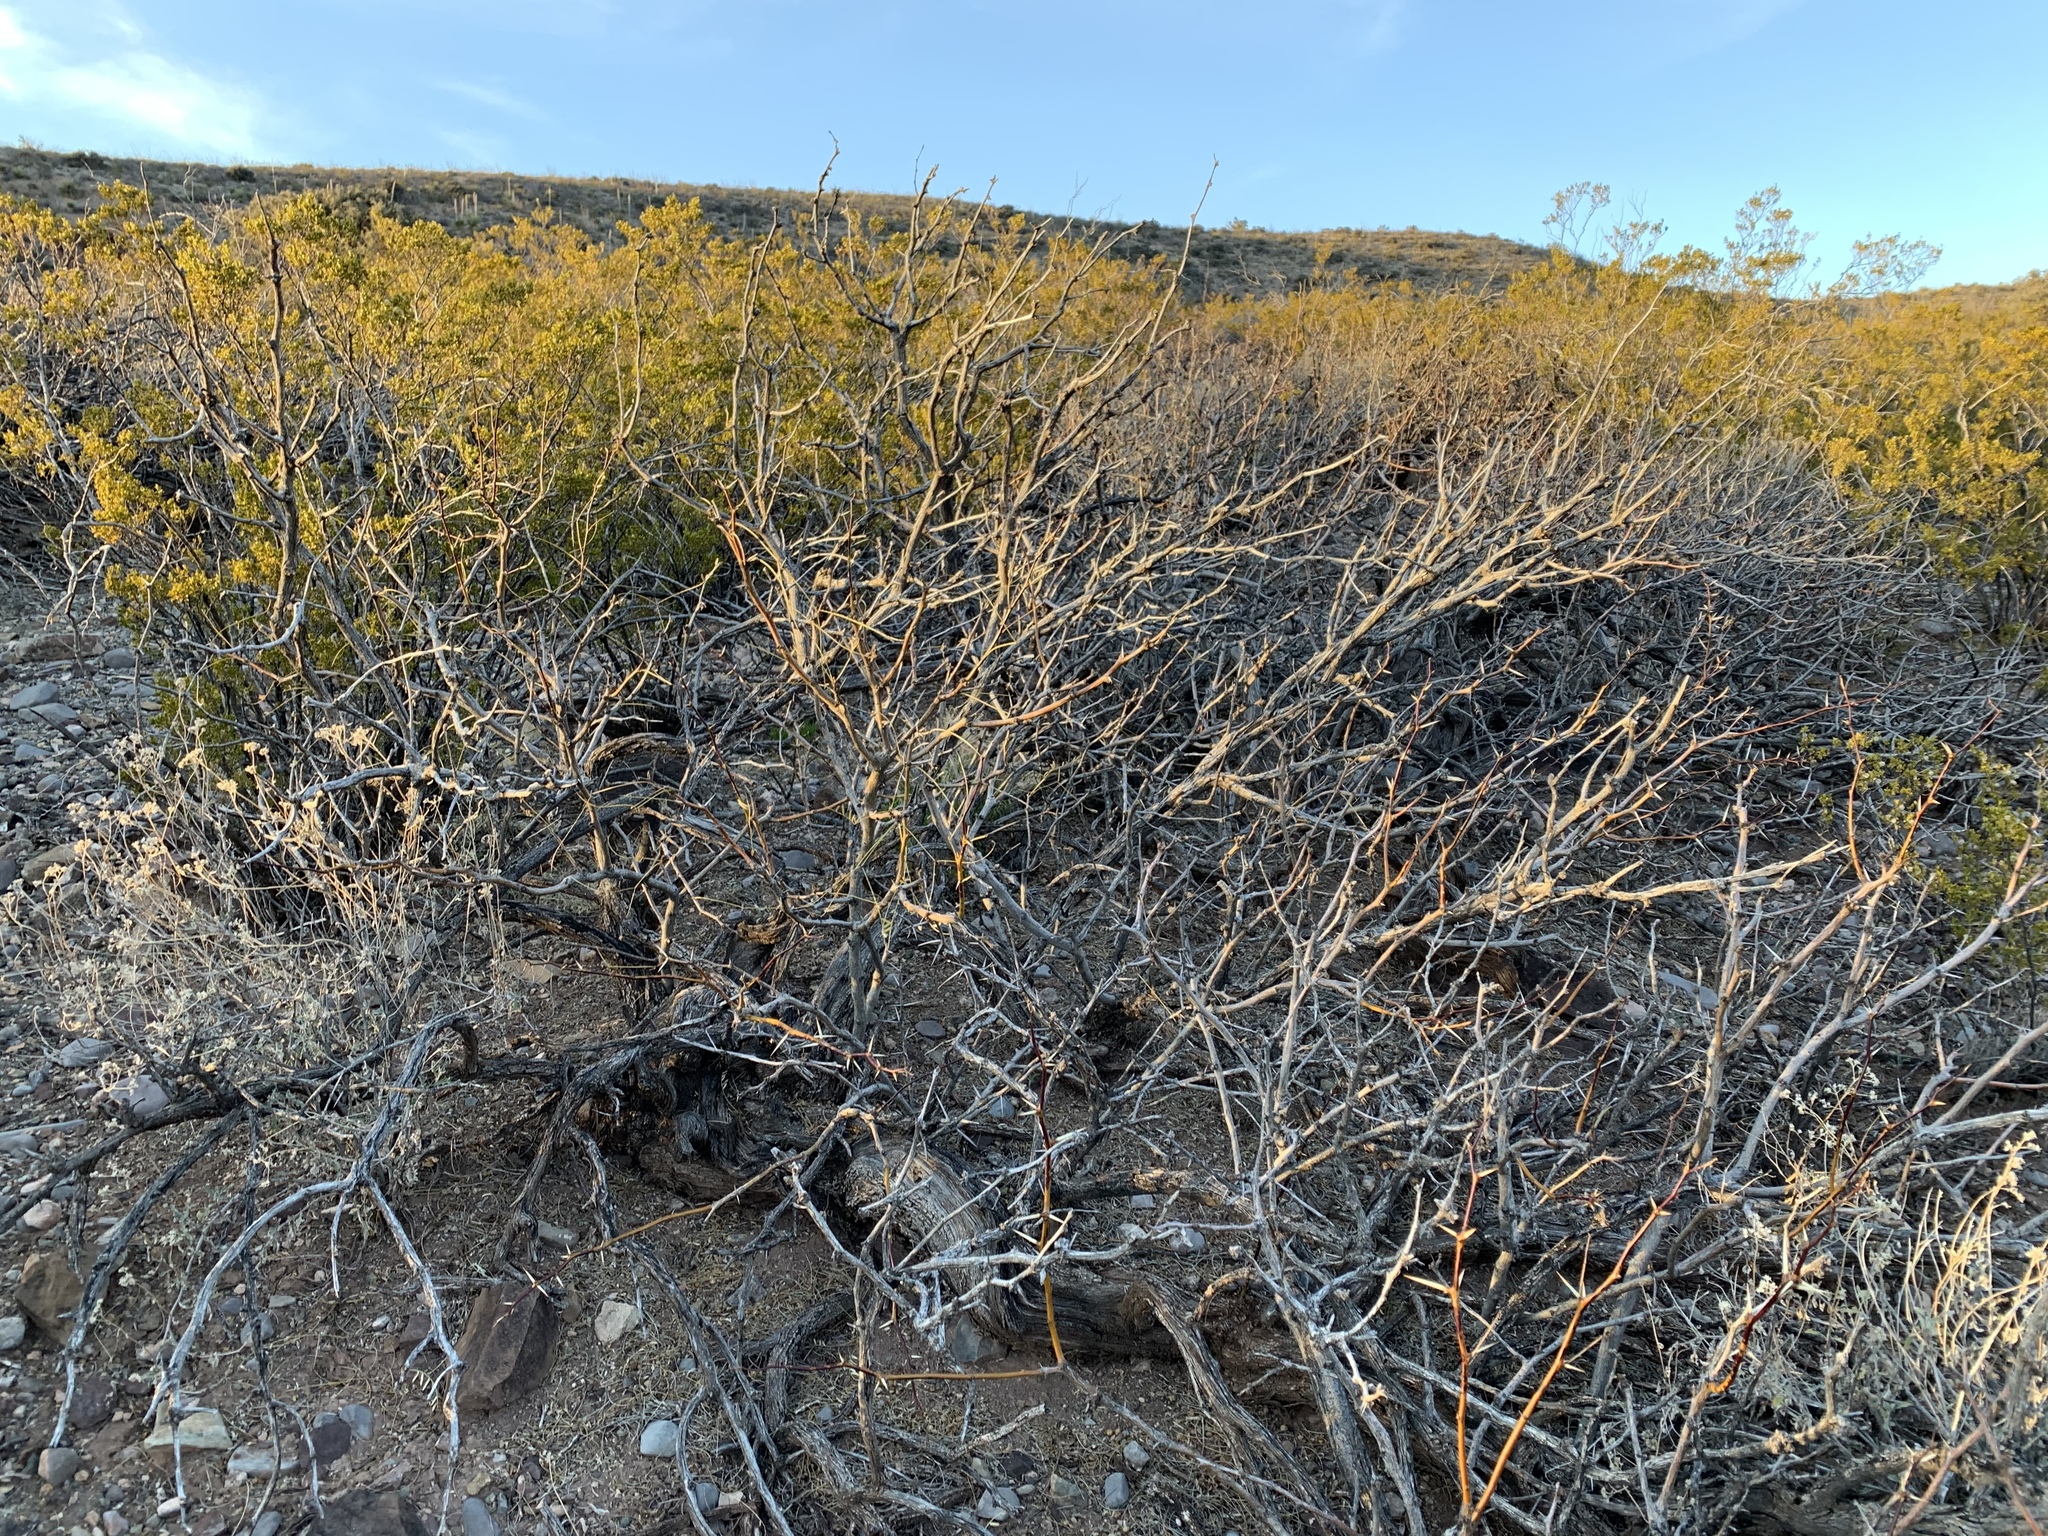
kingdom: Plantae
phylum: Tracheophyta
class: Magnoliopsida
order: Fabales
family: Fabaceae
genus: Prosopis
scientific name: Prosopis glandulosa
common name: Honey mesquite
